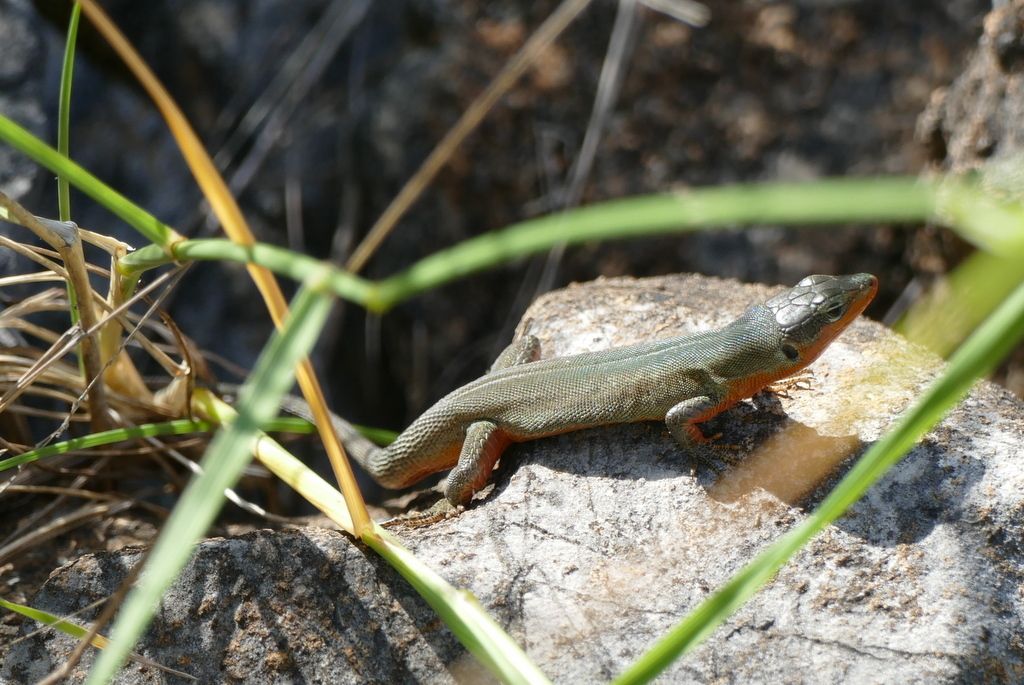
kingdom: Animalia
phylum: Chordata
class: Squamata
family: Lacertidae
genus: Podarcis
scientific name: Podarcis melisellensis
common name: Dalmatian wall lizard
